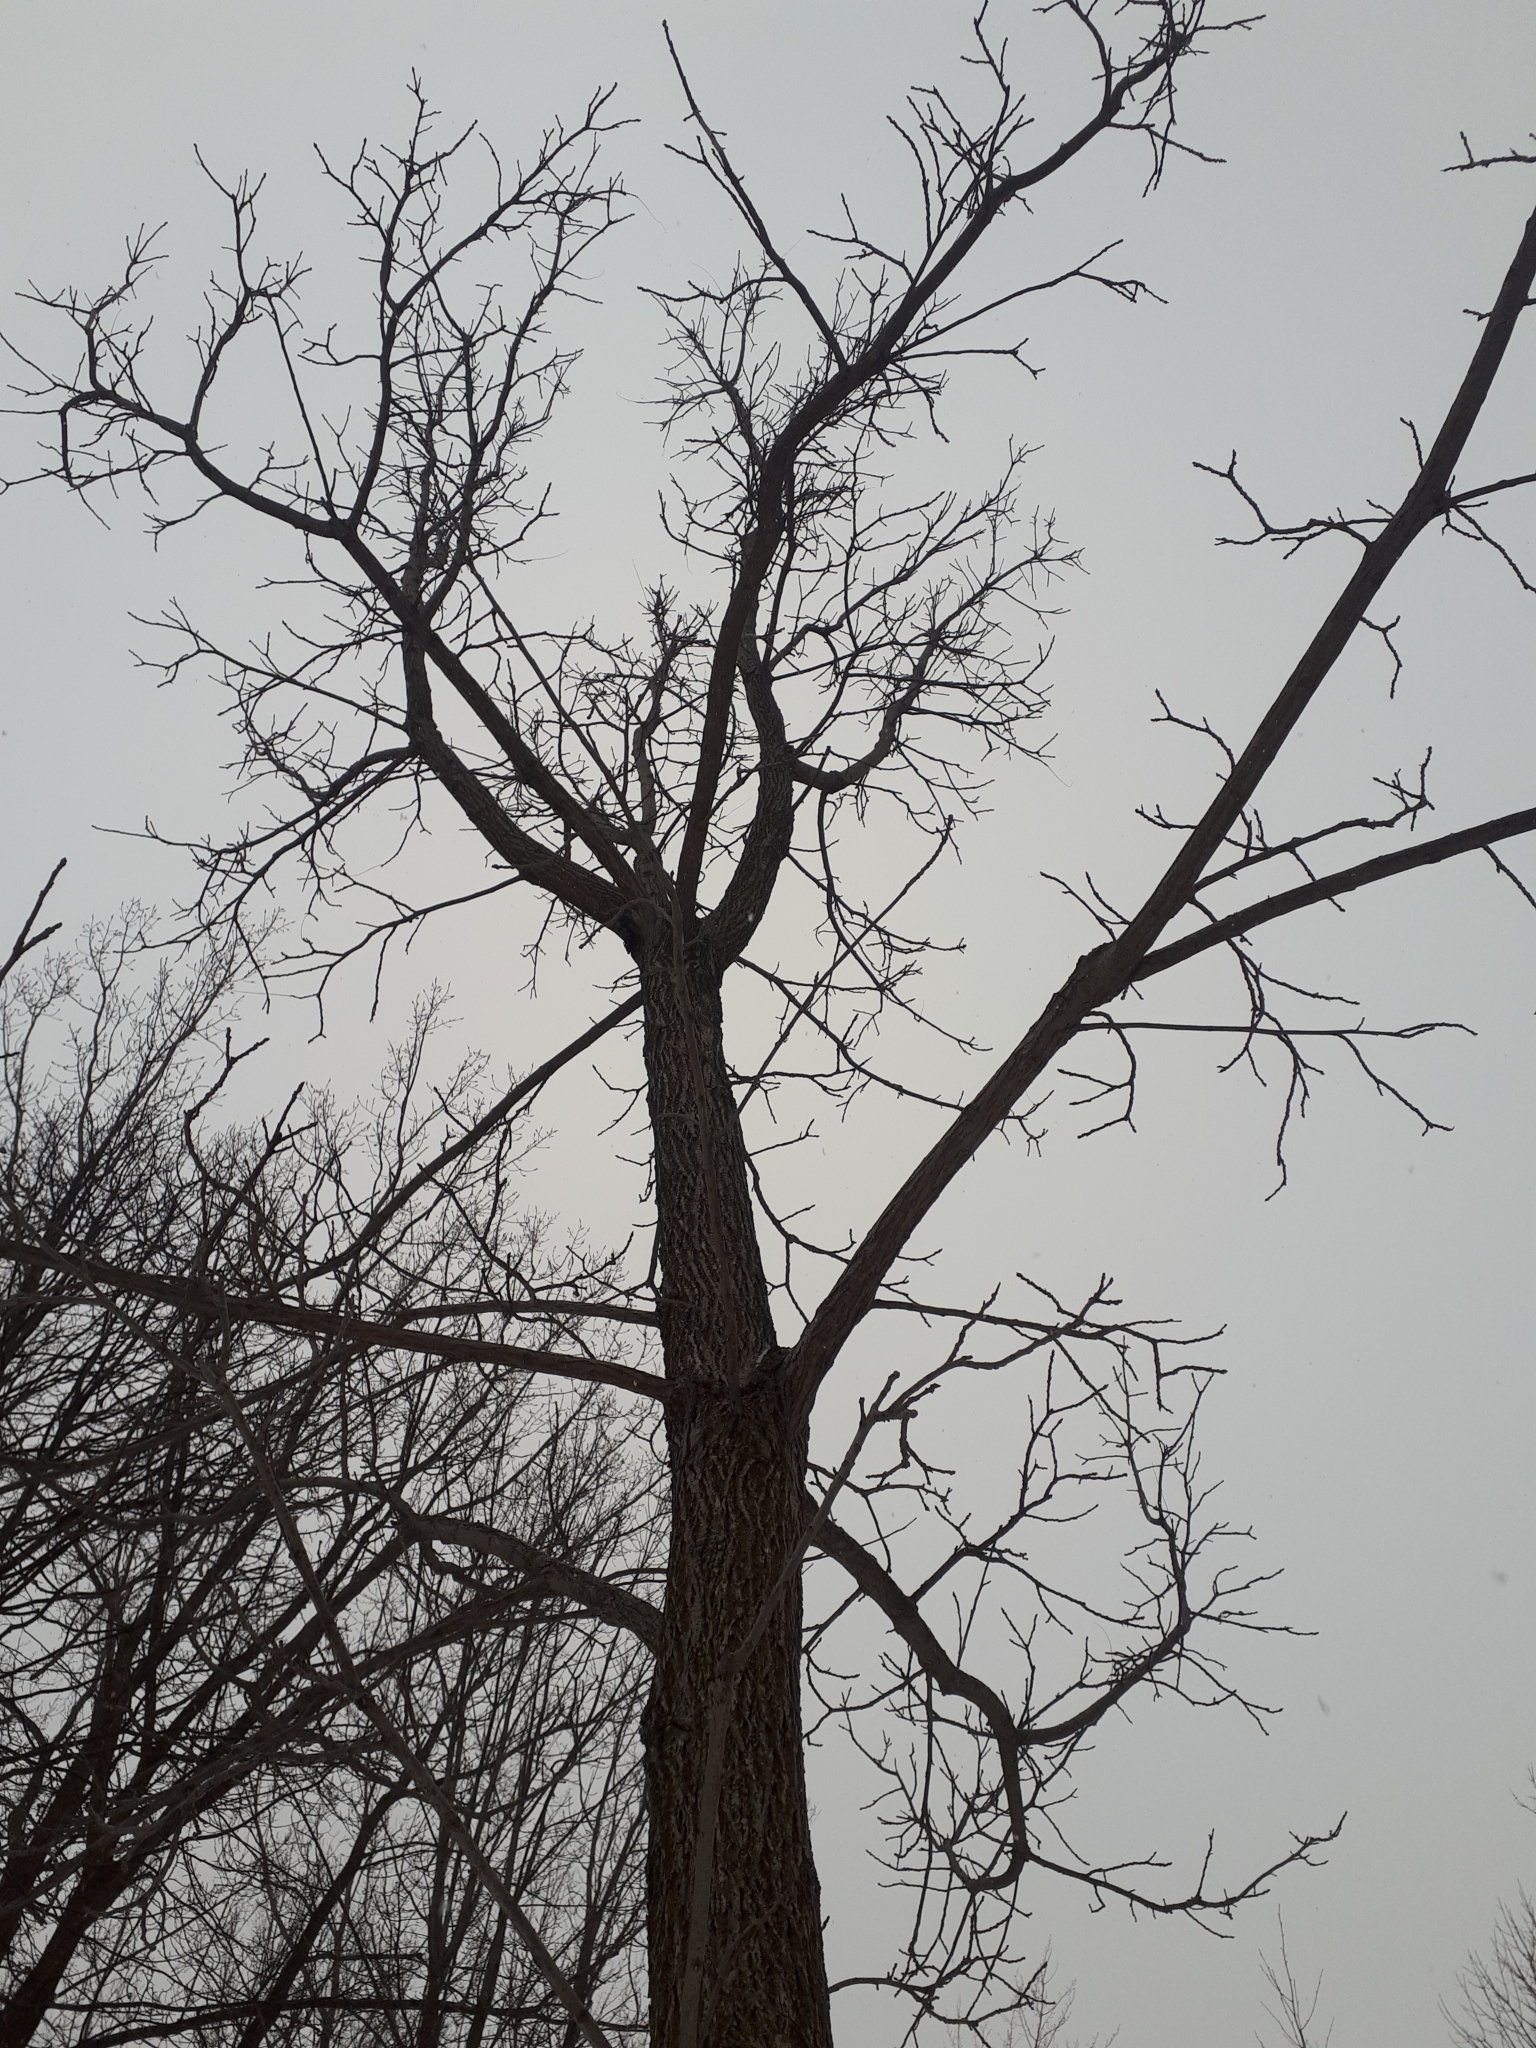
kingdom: Plantae
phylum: Tracheophyta
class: Magnoliopsida
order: Fagales
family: Juglandaceae
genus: Juglans
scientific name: Juglans nigra
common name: Black walnut
